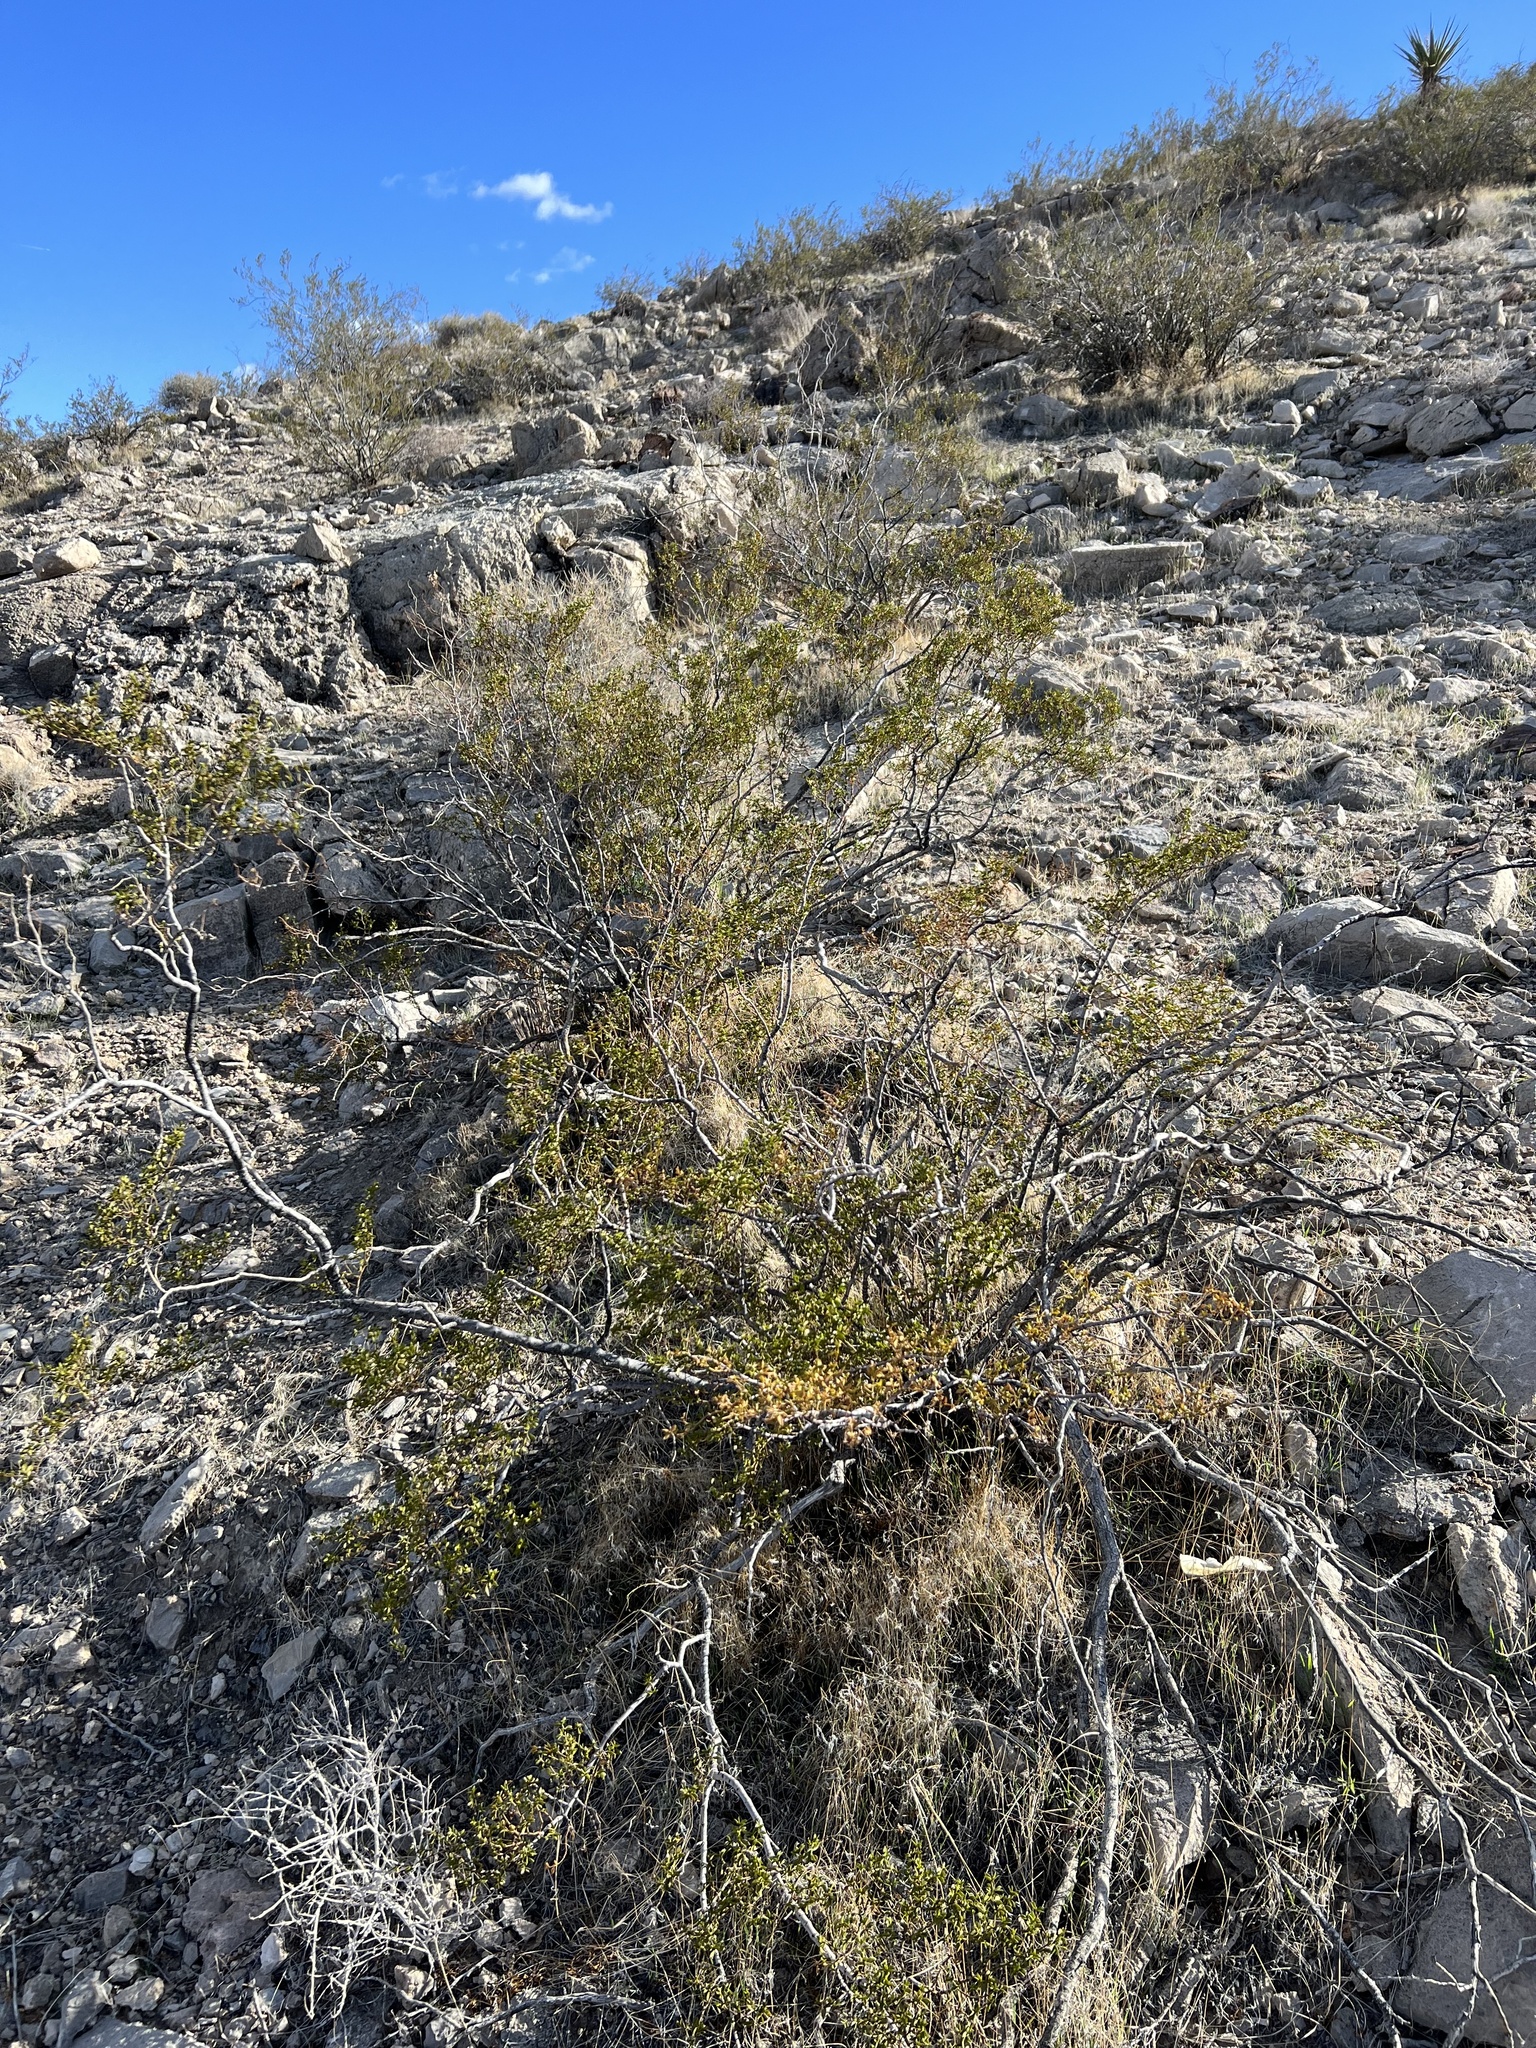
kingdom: Plantae
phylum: Tracheophyta
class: Magnoliopsida
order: Zygophyllales
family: Zygophyllaceae
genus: Larrea
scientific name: Larrea tridentata
